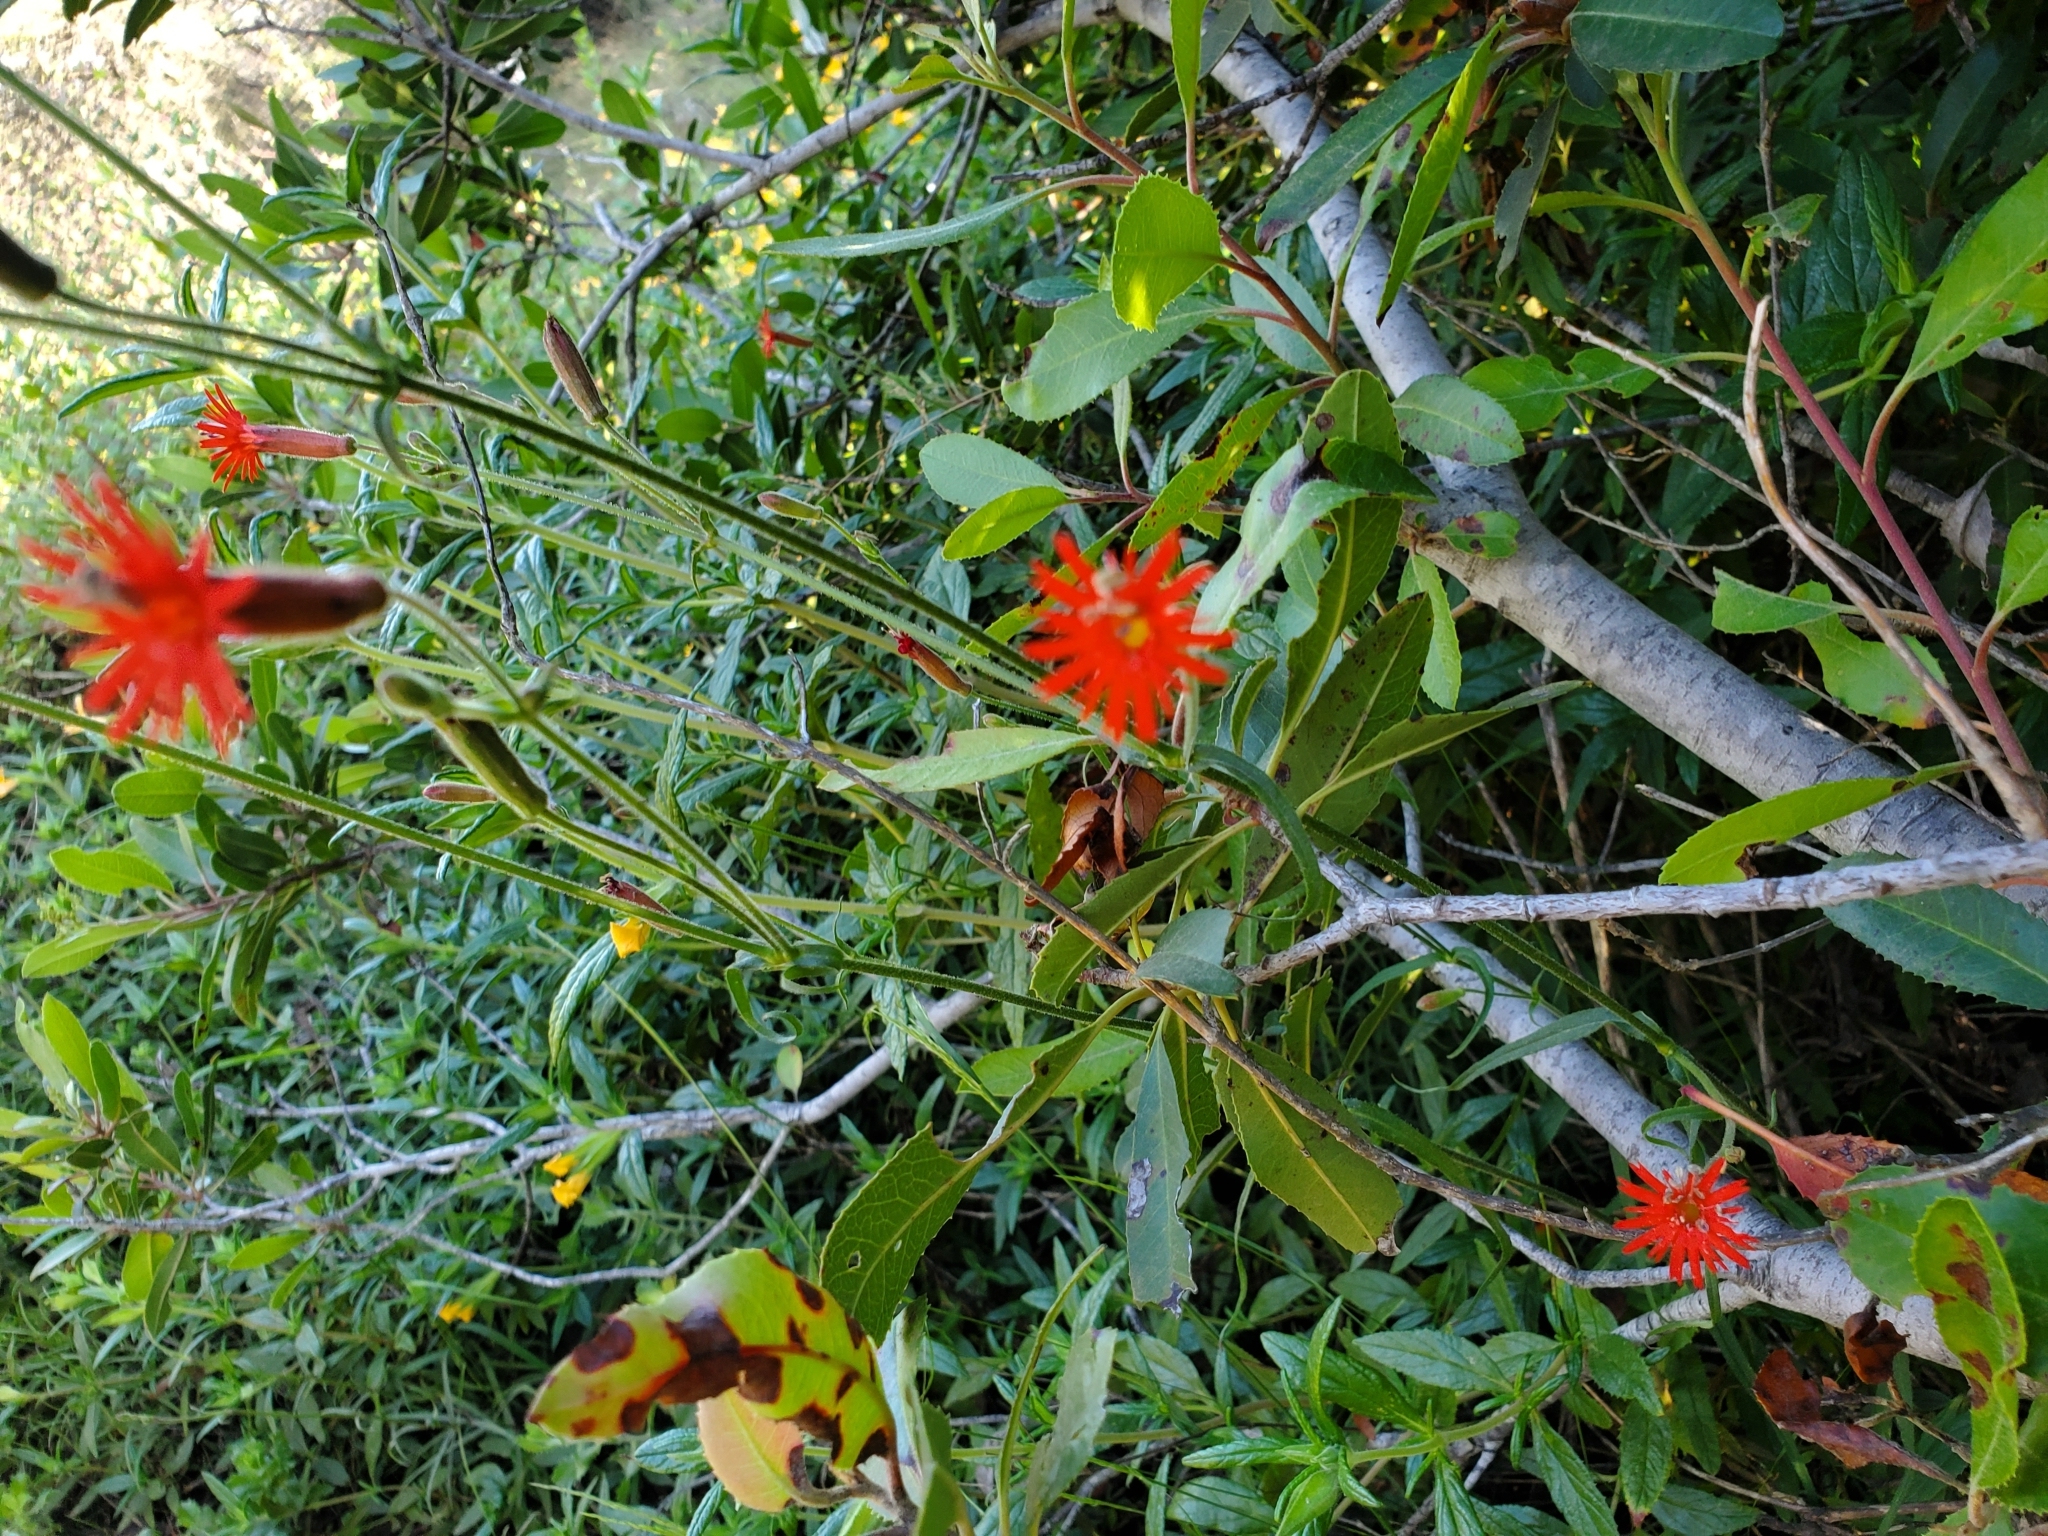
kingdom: Plantae
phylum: Tracheophyta
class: Magnoliopsida
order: Caryophyllales
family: Caryophyllaceae
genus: Silene
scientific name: Silene laciniata
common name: Indian-pink
